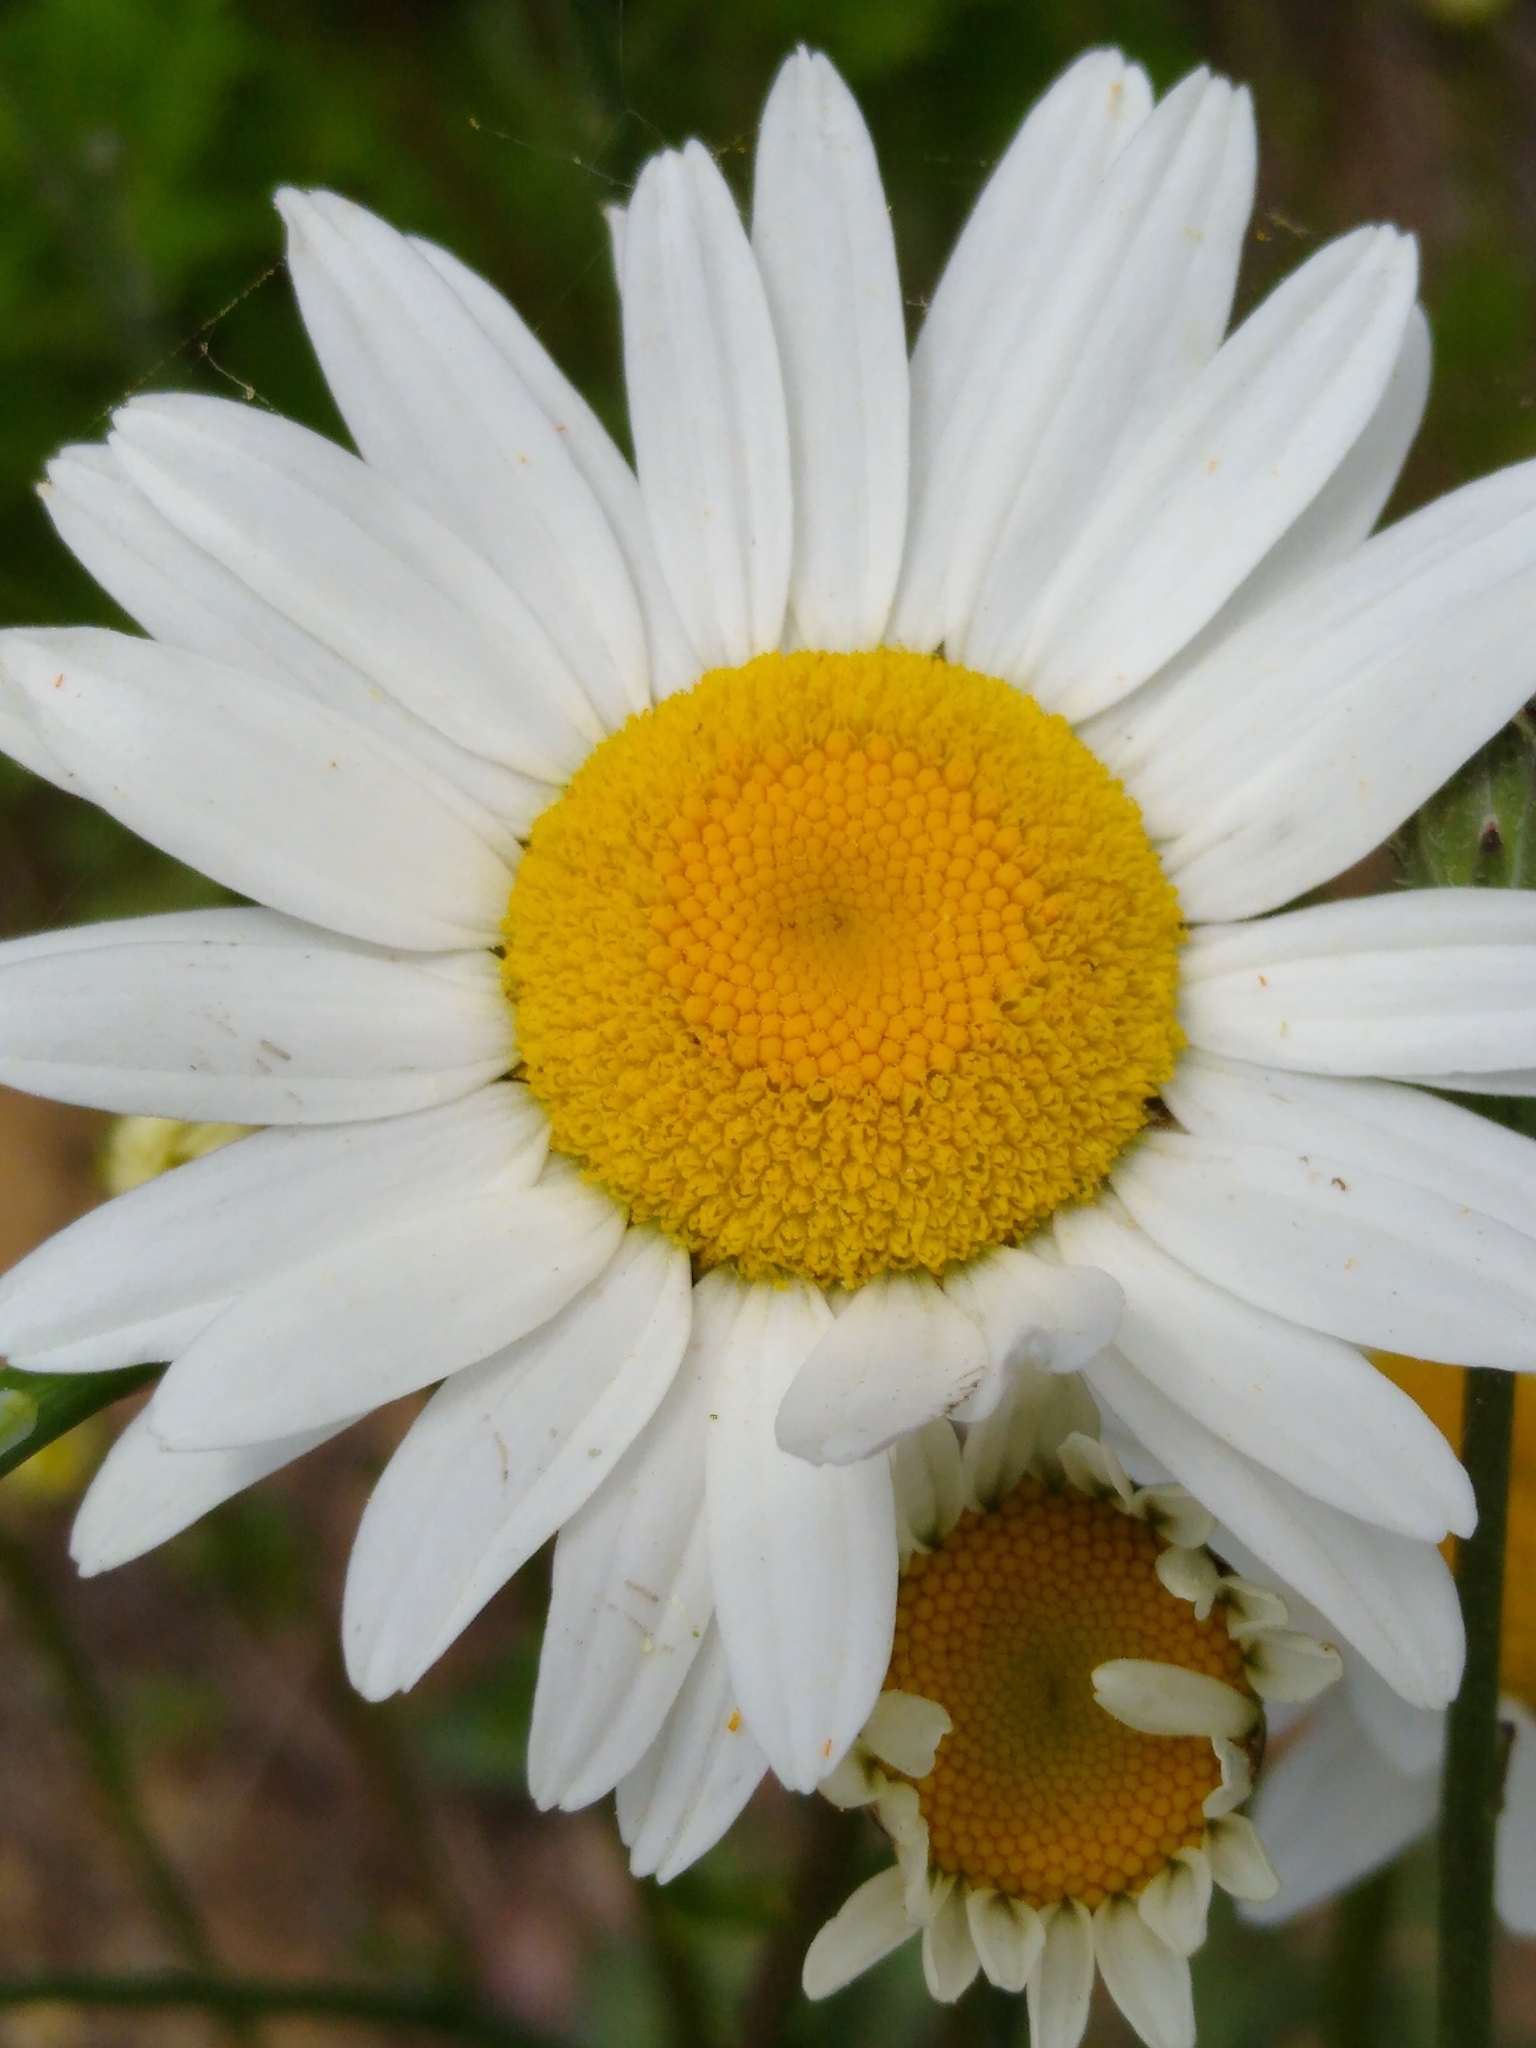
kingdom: Plantae
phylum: Tracheophyta
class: Magnoliopsida
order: Asterales
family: Asteraceae
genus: Leucanthemum
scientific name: Leucanthemum vulgare
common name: Oxeye daisy
